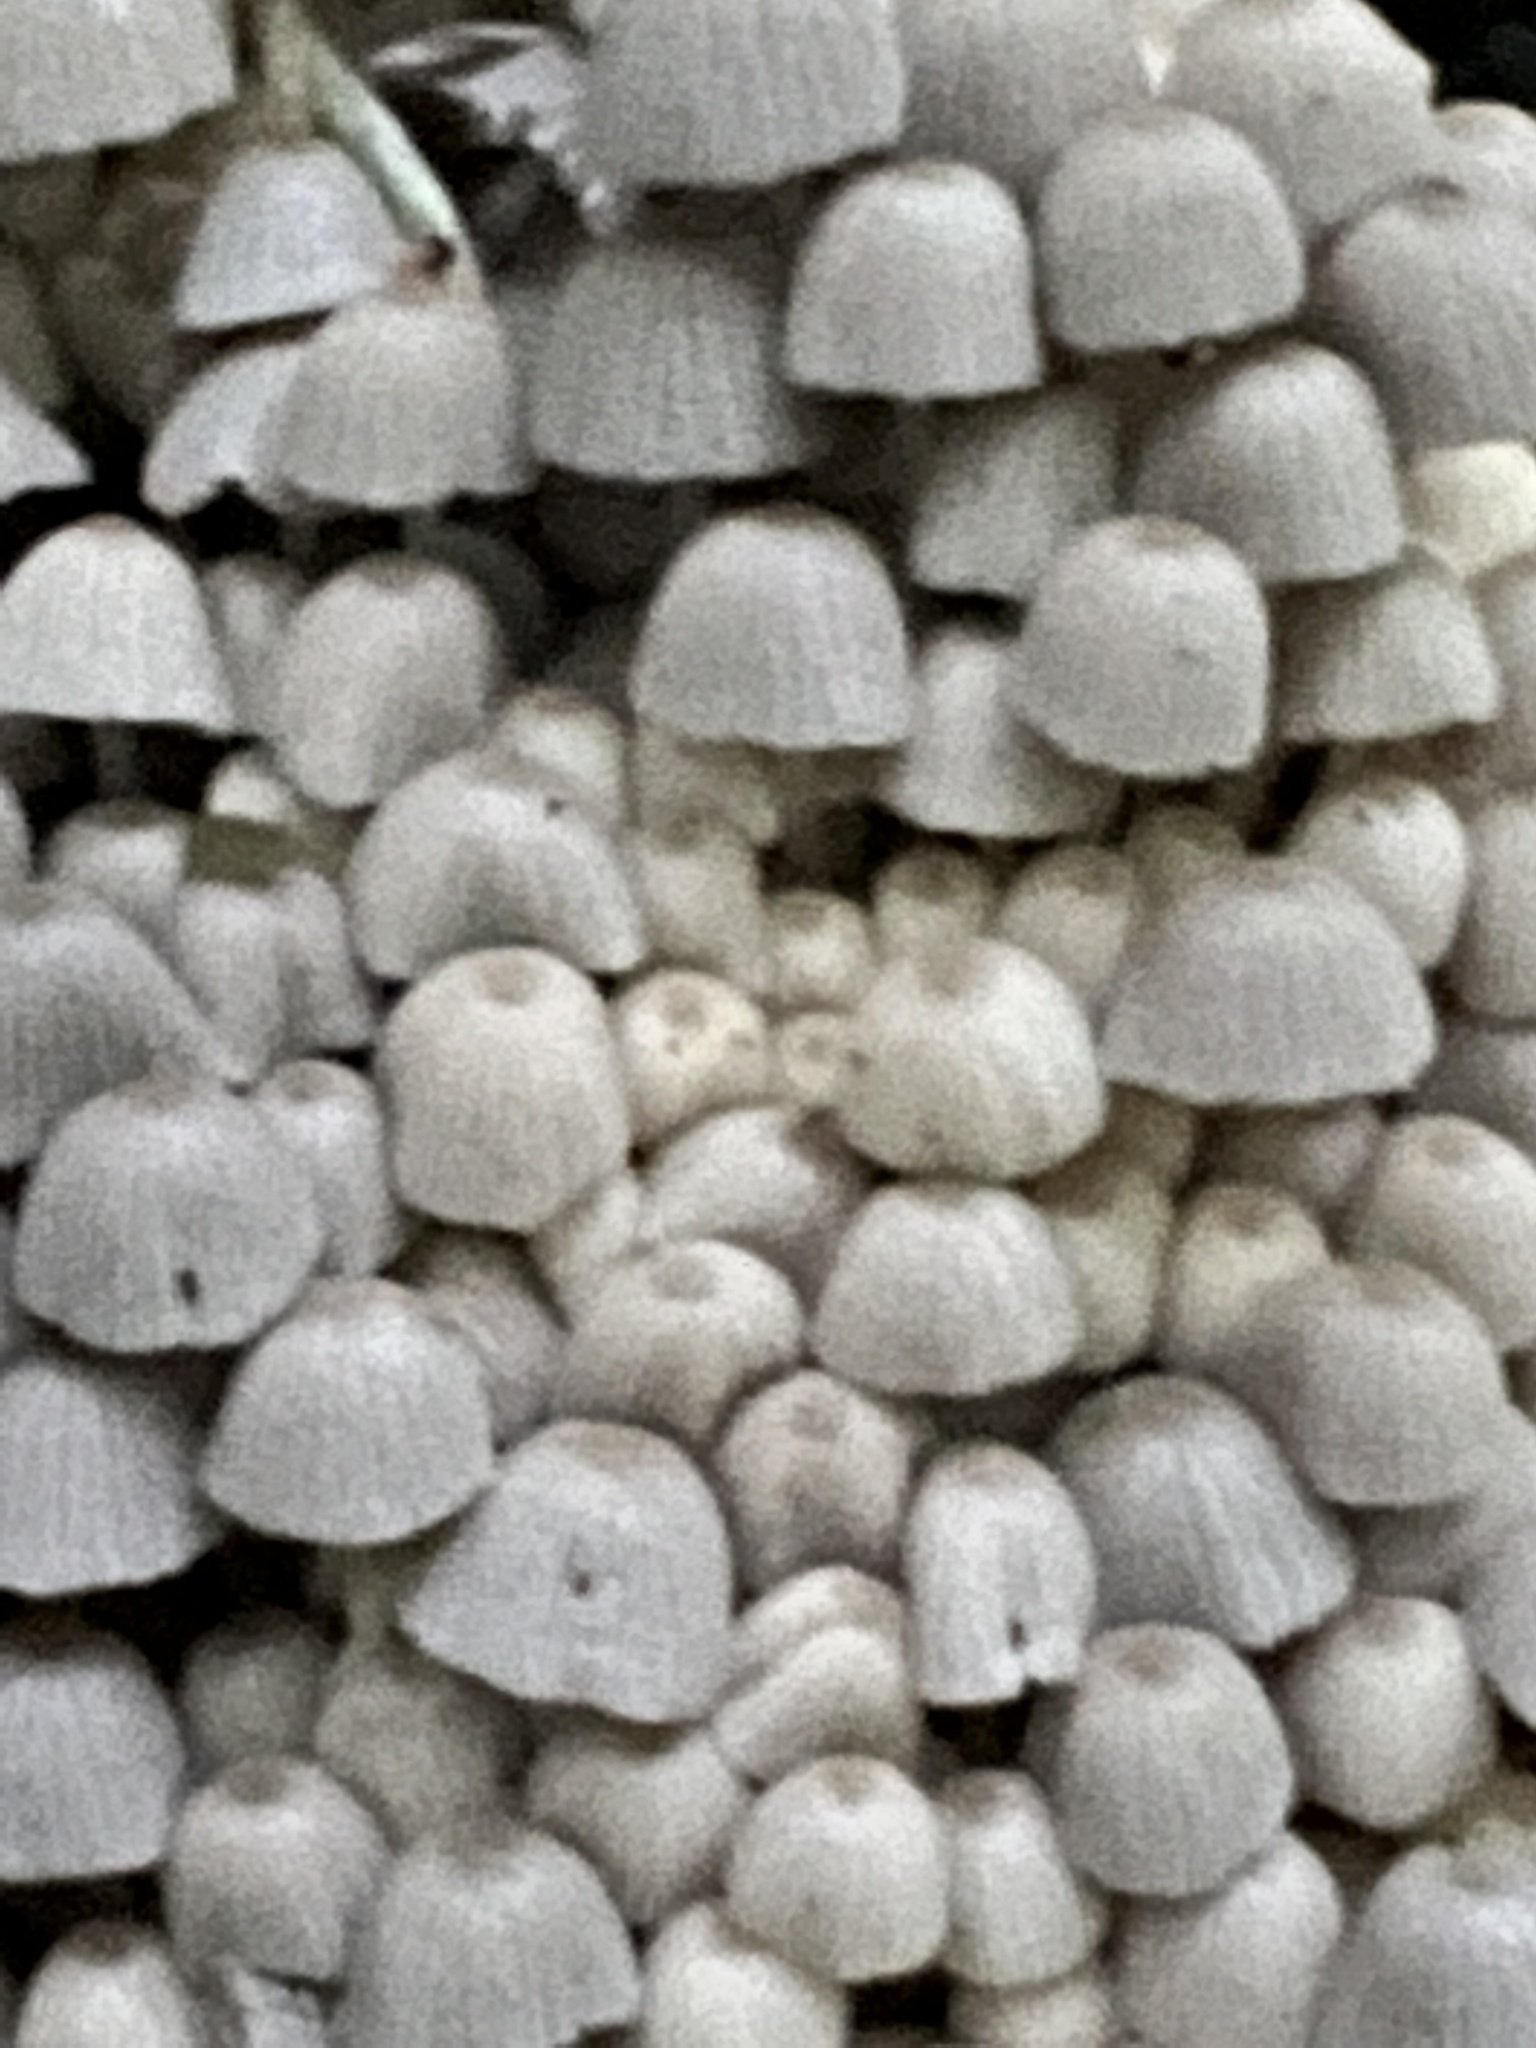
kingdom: Fungi
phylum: Basidiomycota
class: Agaricomycetes
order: Agaricales
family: Psathyrellaceae
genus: Coprinellus
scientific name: Coprinellus disseminatus
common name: Fairies' bonnets
